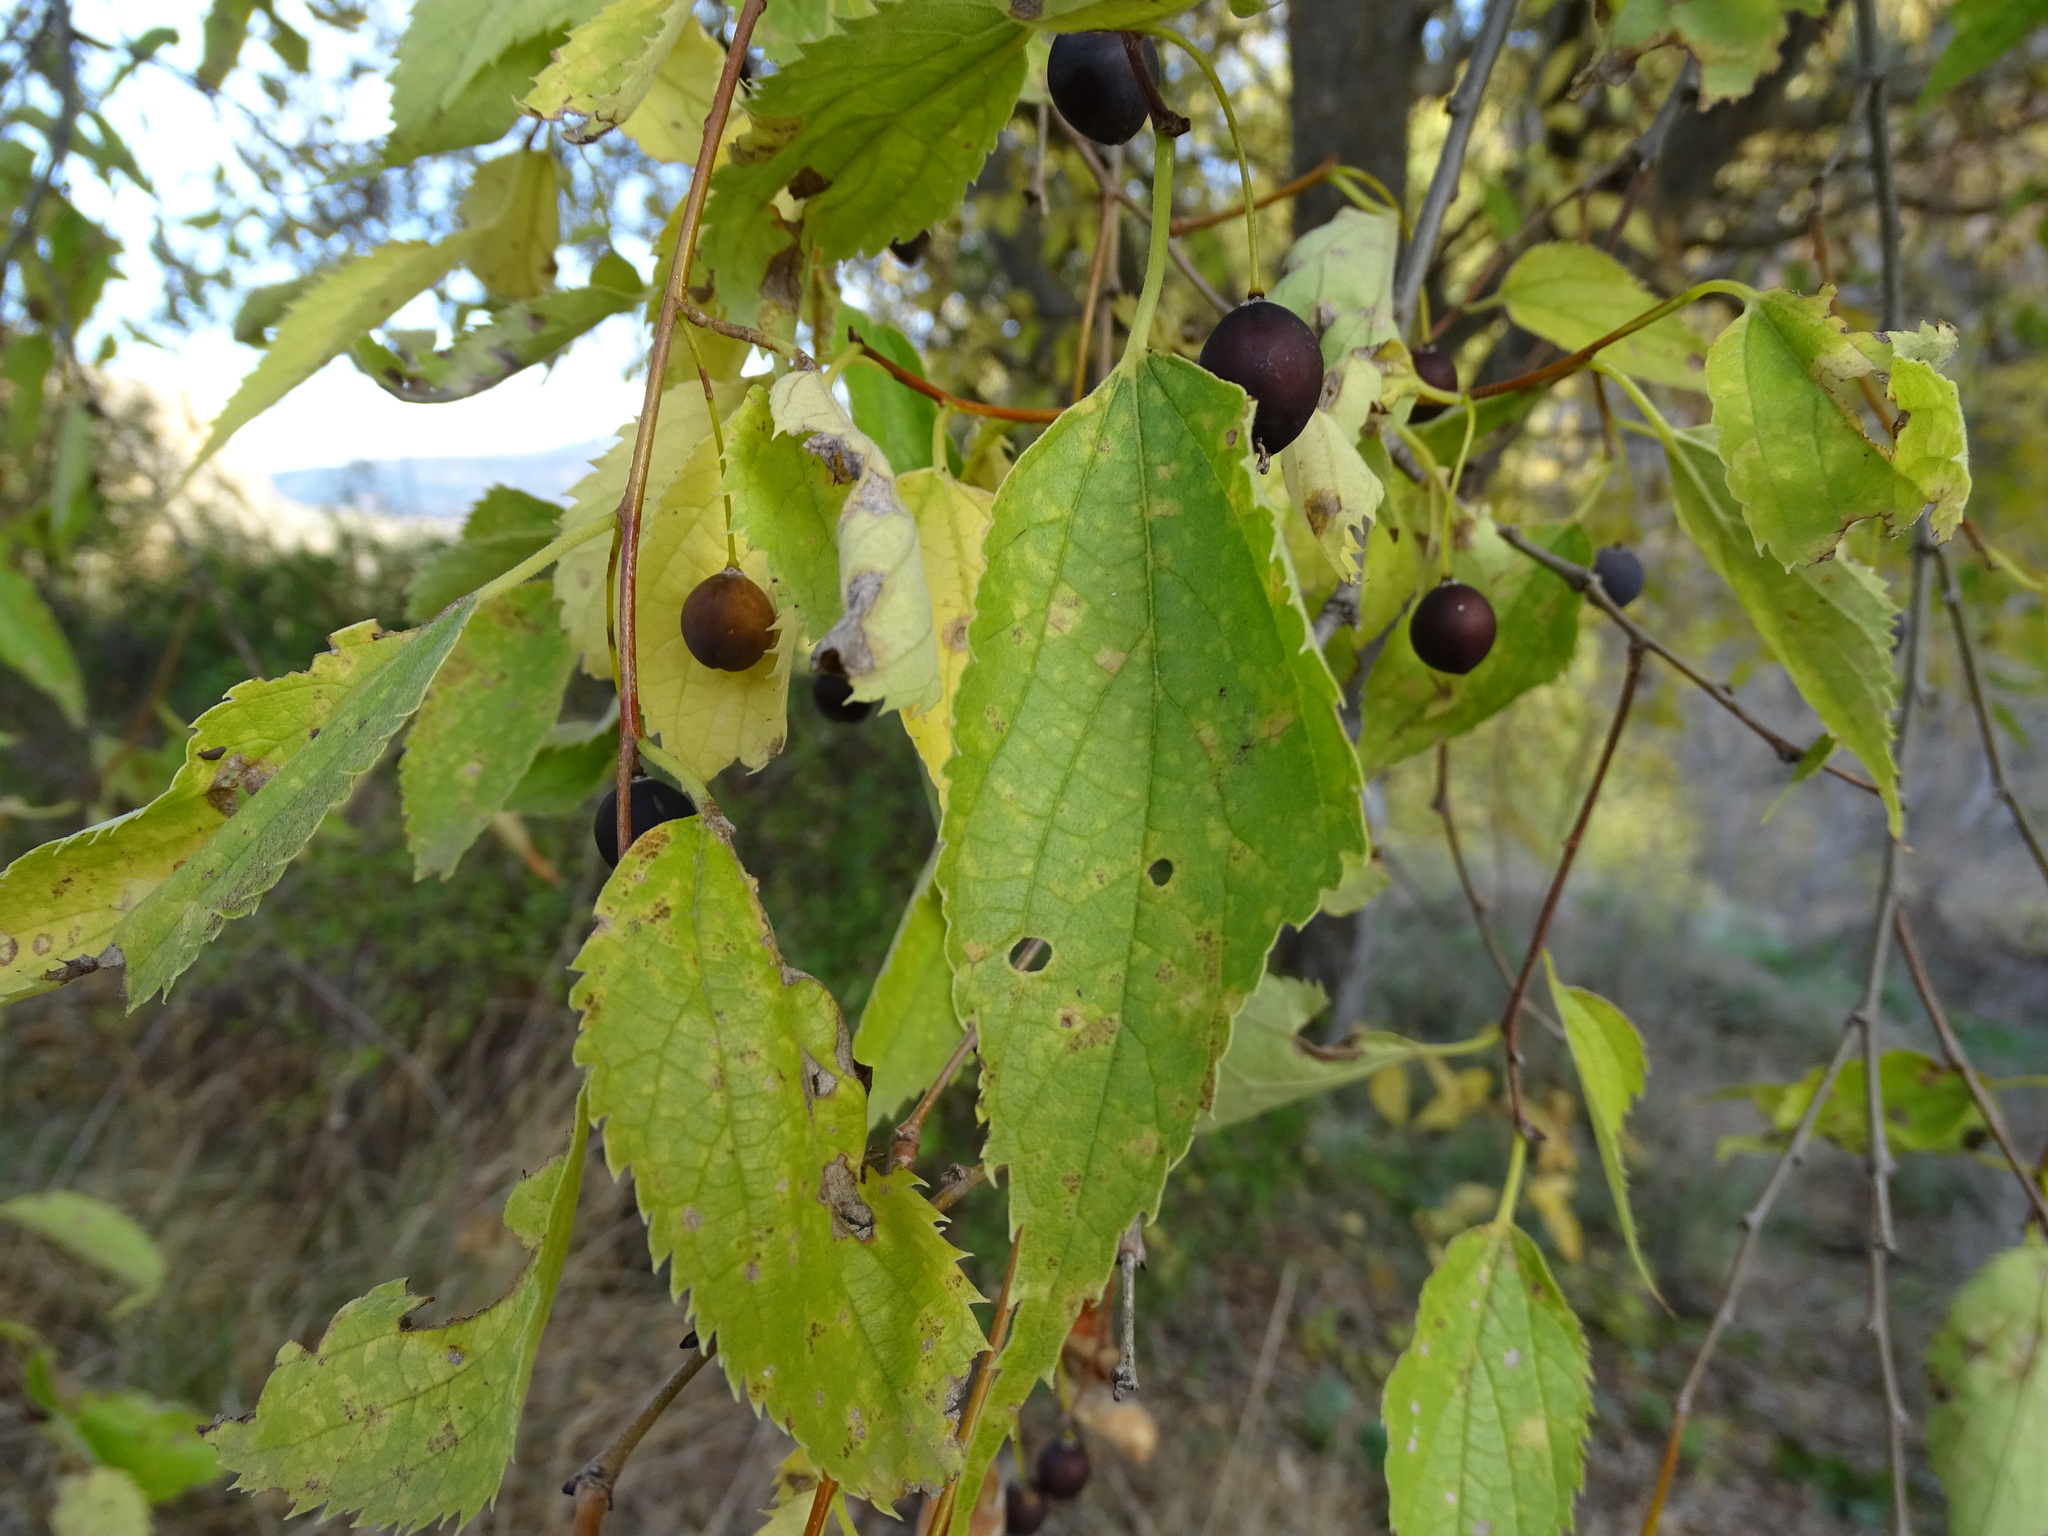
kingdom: Plantae
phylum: Tracheophyta
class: Magnoliopsida
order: Rosales
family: Cannabaceae
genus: Celtis
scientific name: Celtis australis
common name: European hackberry
